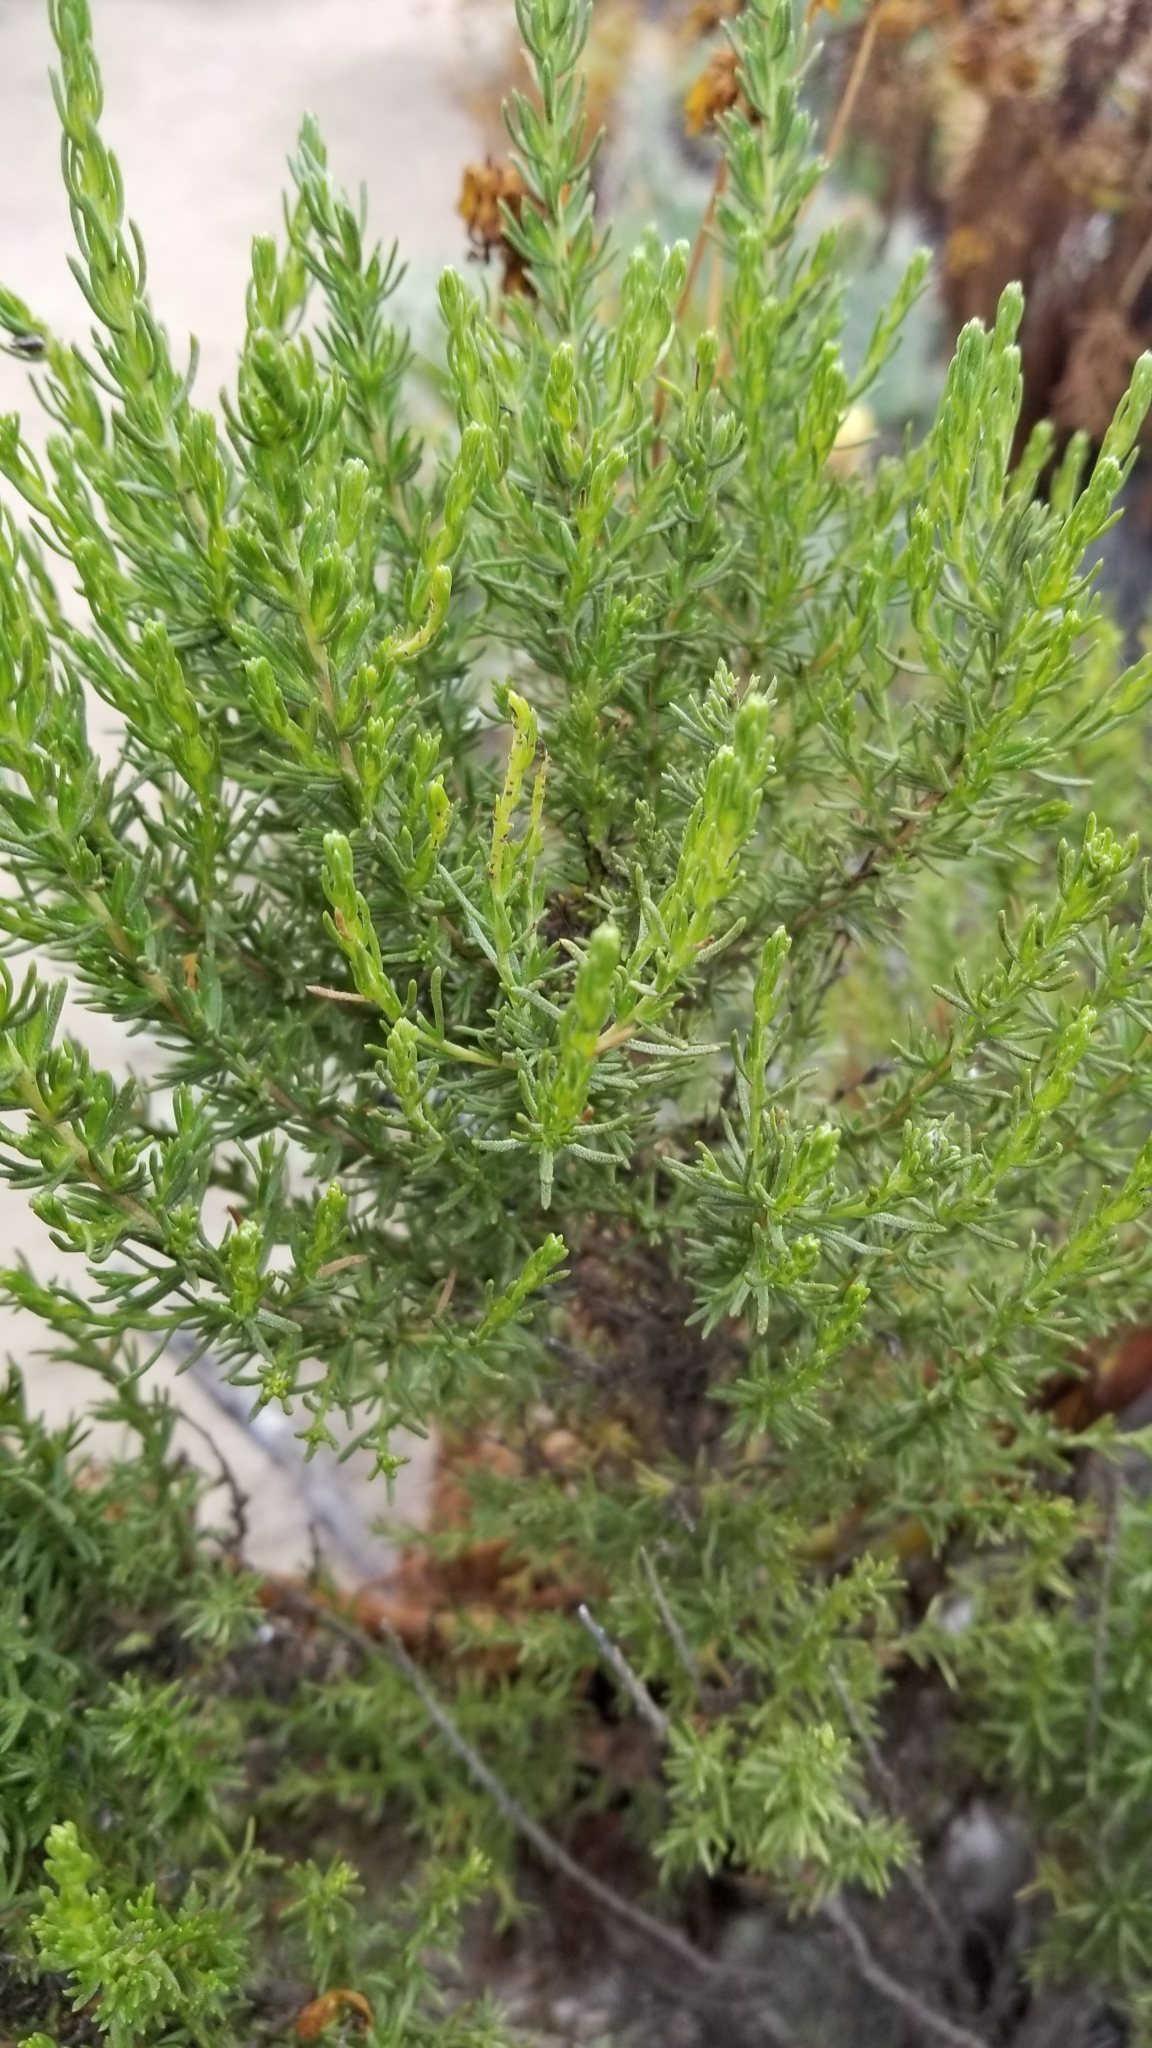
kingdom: Plantae
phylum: Tracheophyta
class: Magnoliopsida
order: Asterales
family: Asteraceae
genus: Ericameria
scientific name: Ericameria ericoides
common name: California goldenbush
